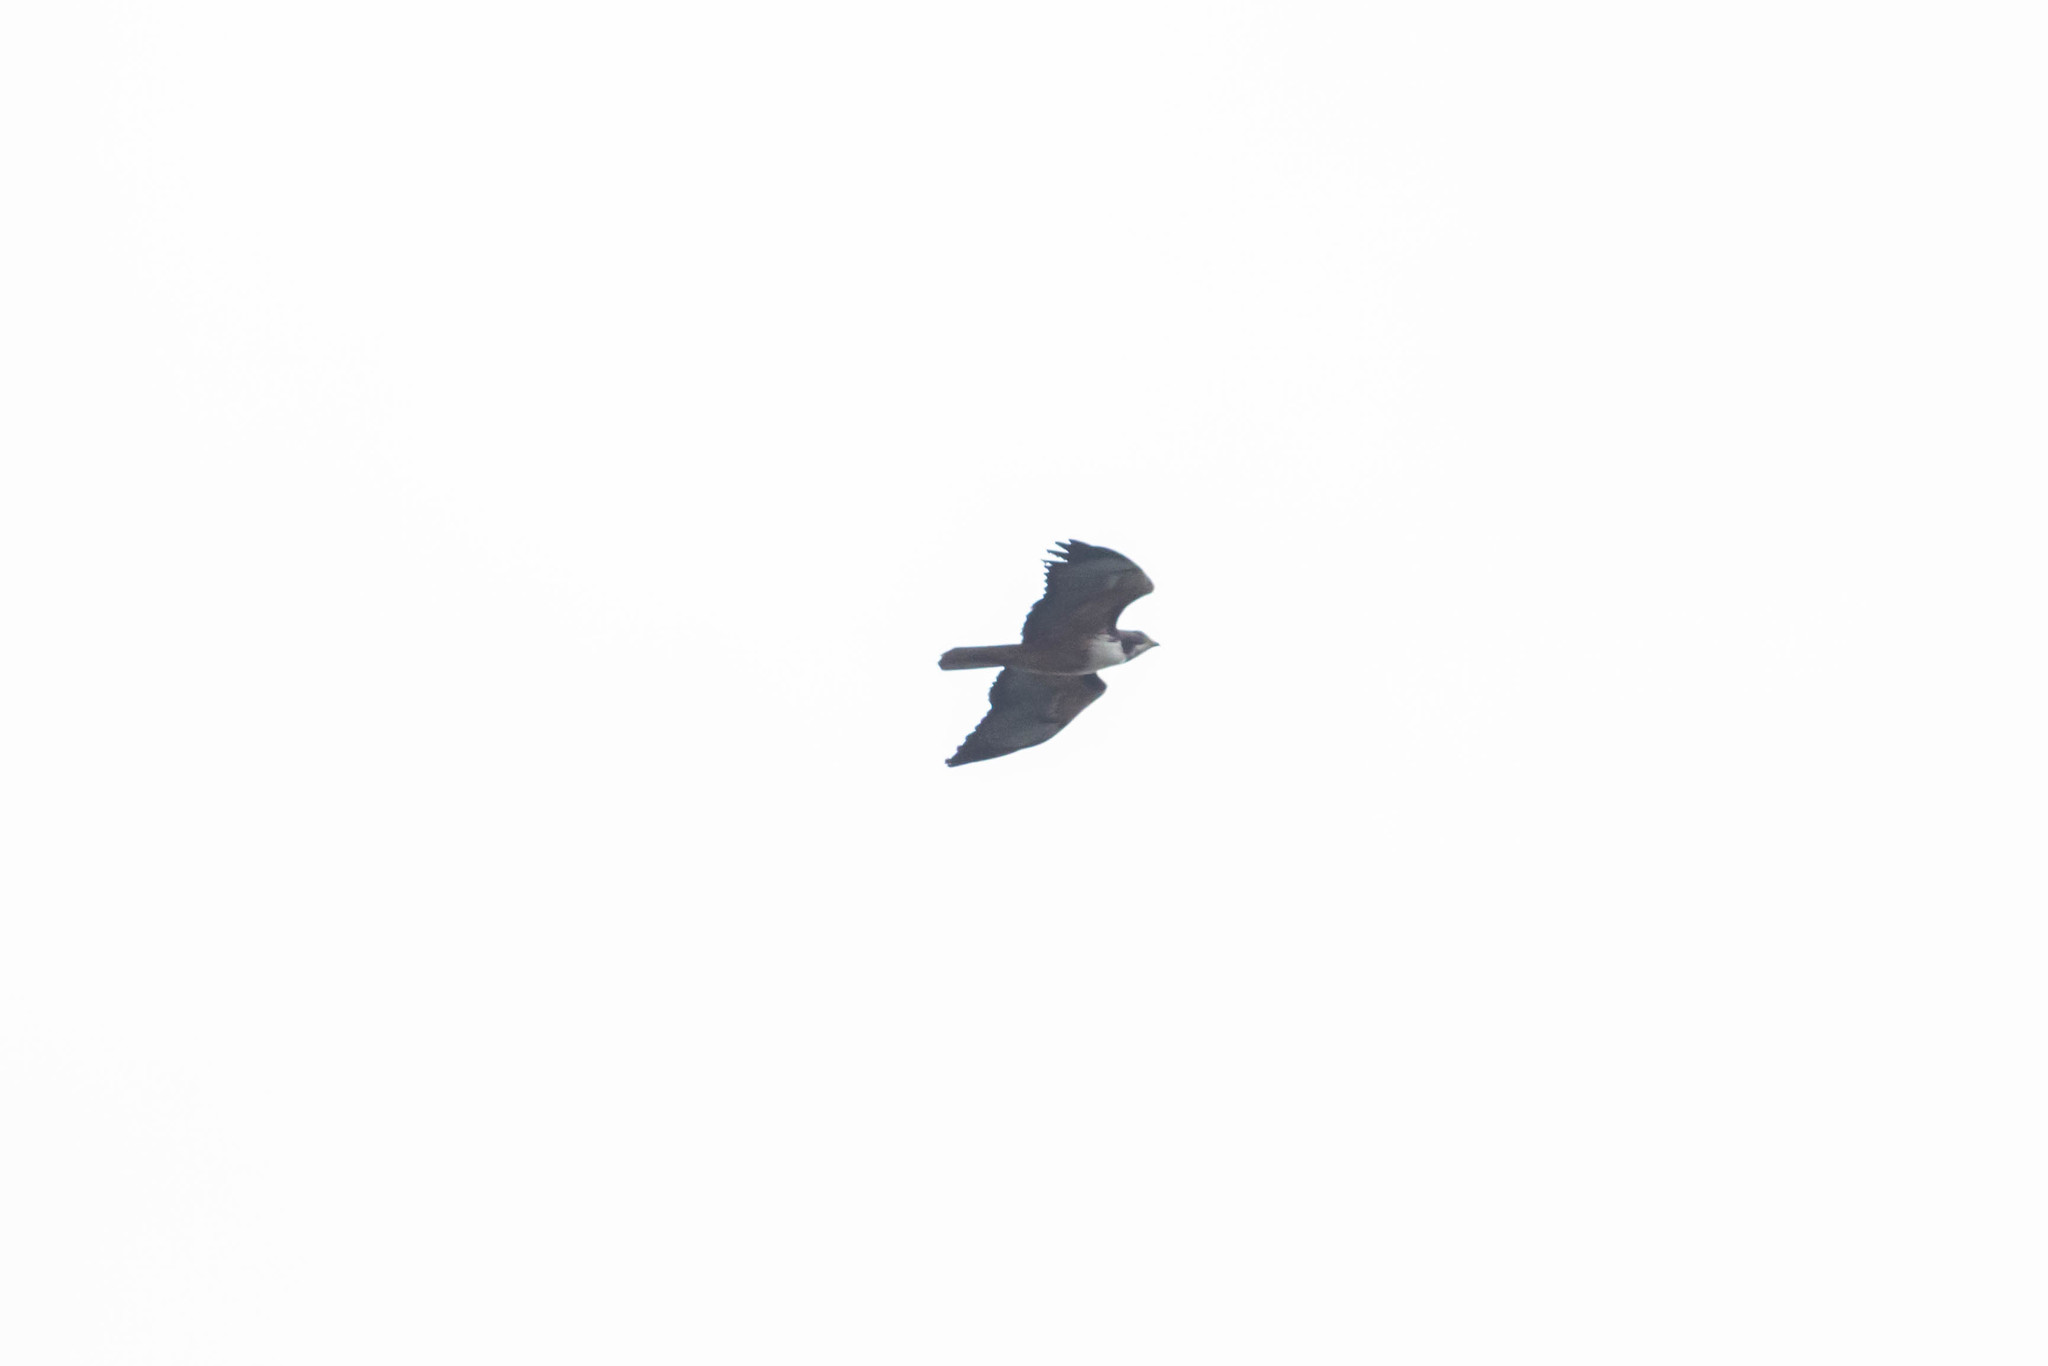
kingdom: Animalia
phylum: Chordata
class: Aves
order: Accipitriformes
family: Accipitridae
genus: Buteo
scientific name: Buteo jamaicensis
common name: Red-tailed hawk
